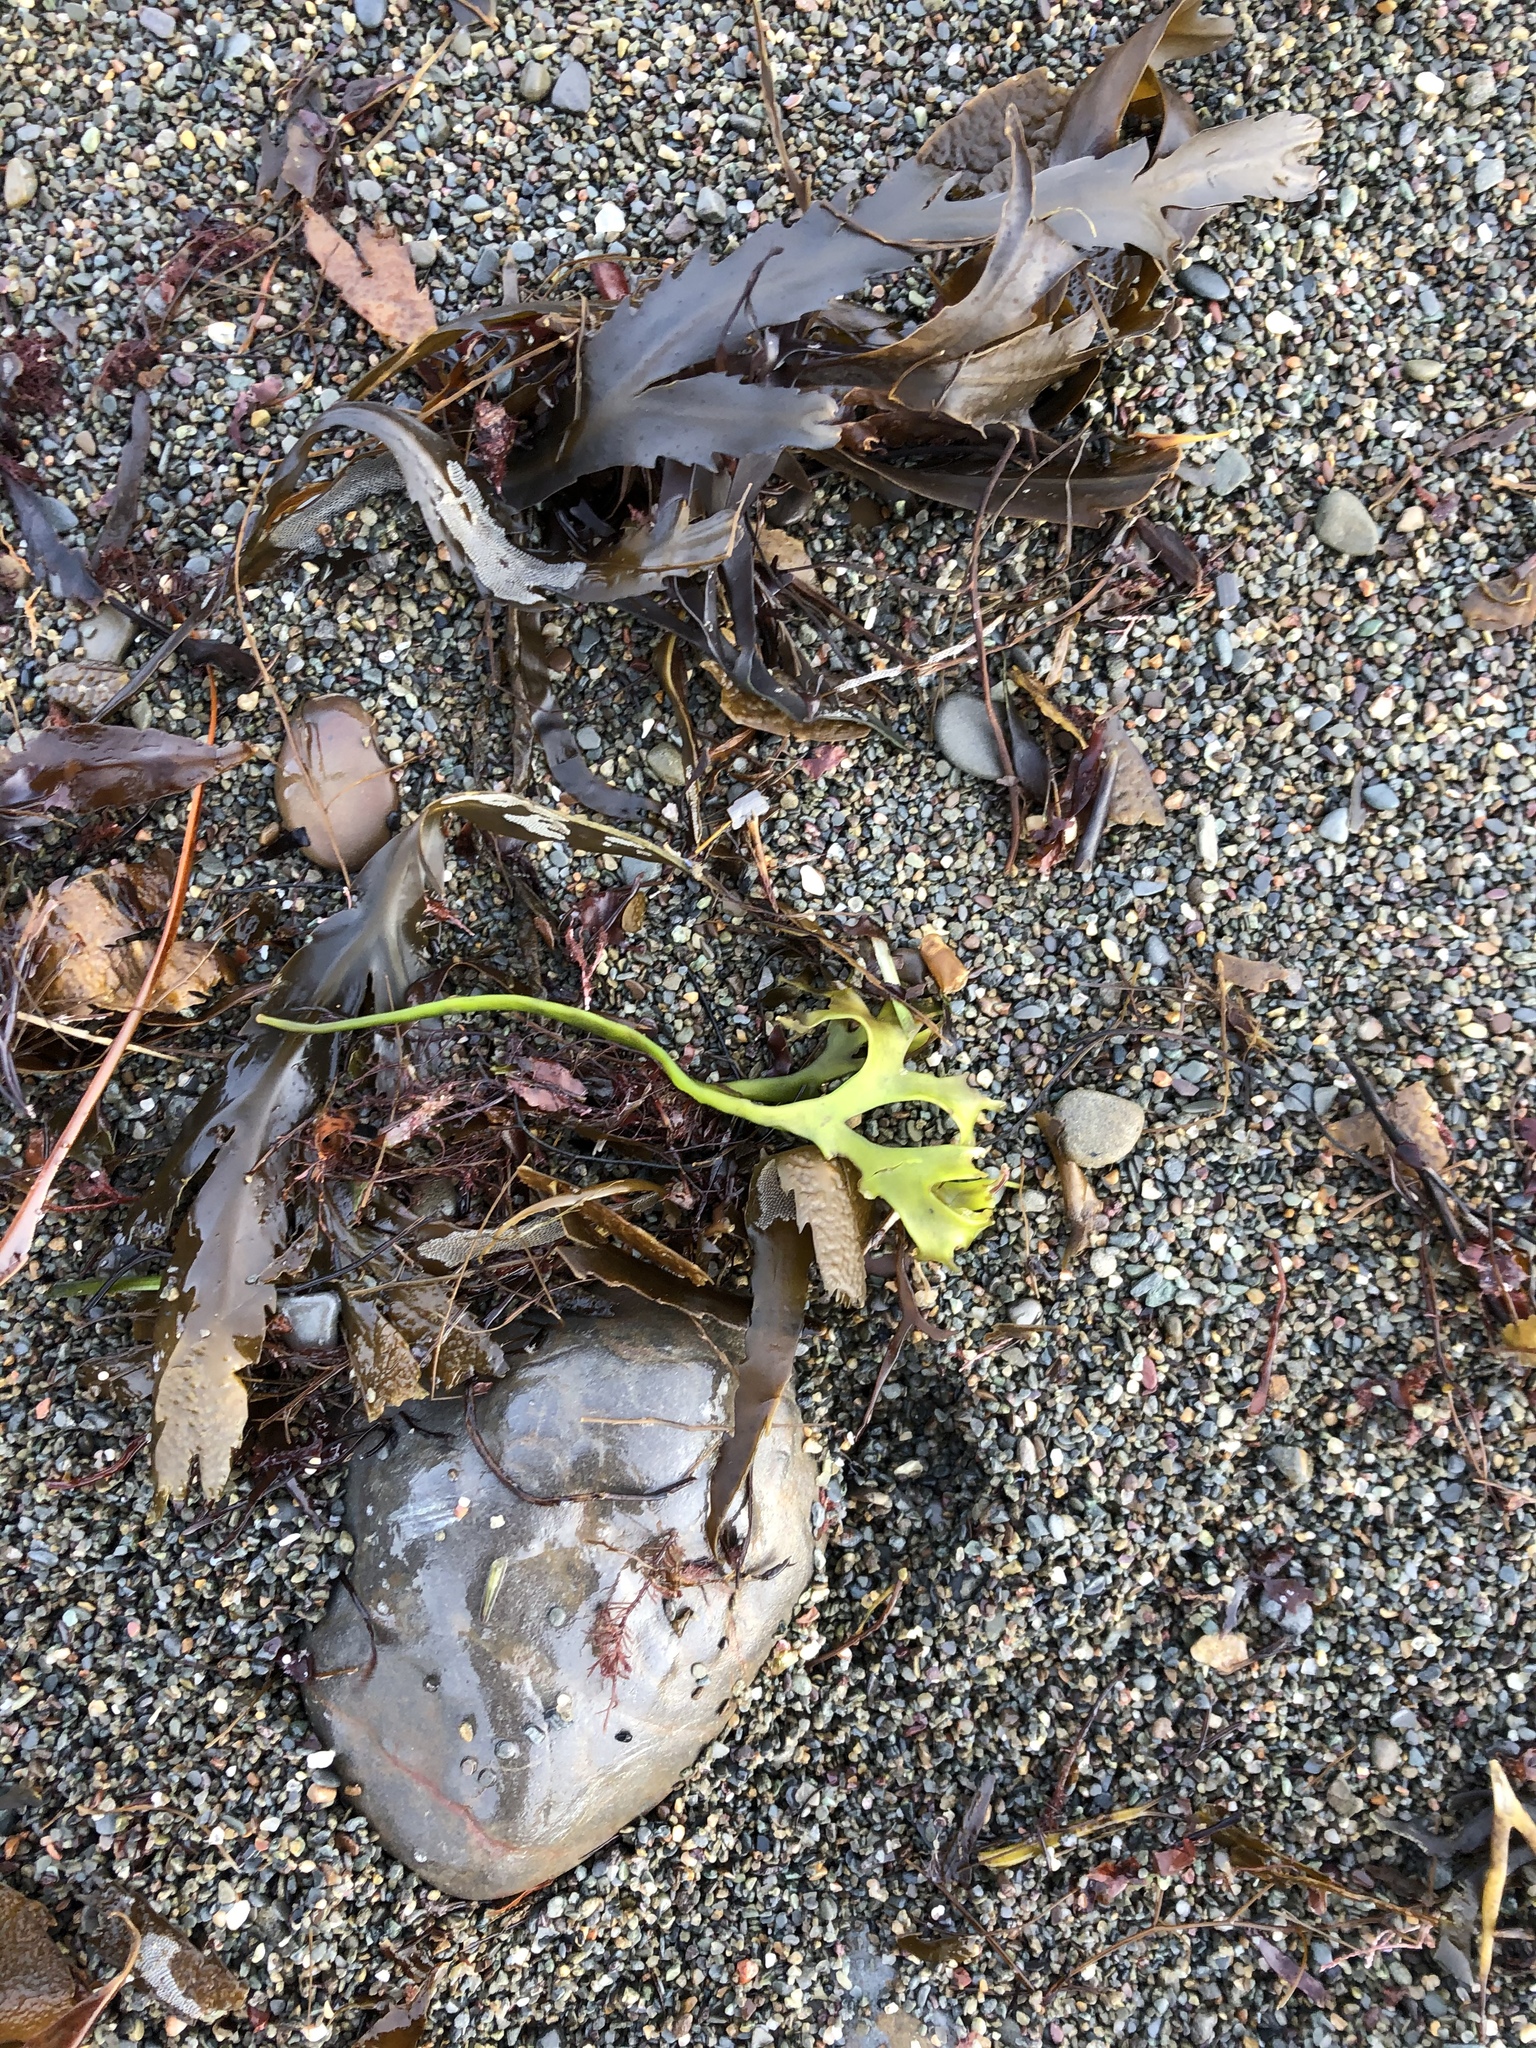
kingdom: Plantae
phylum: Rhodophyta
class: Florideophyceae
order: Gigartinales
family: Gigartinaceae
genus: Chondrus
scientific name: Chondrus crispus
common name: Carrageen
